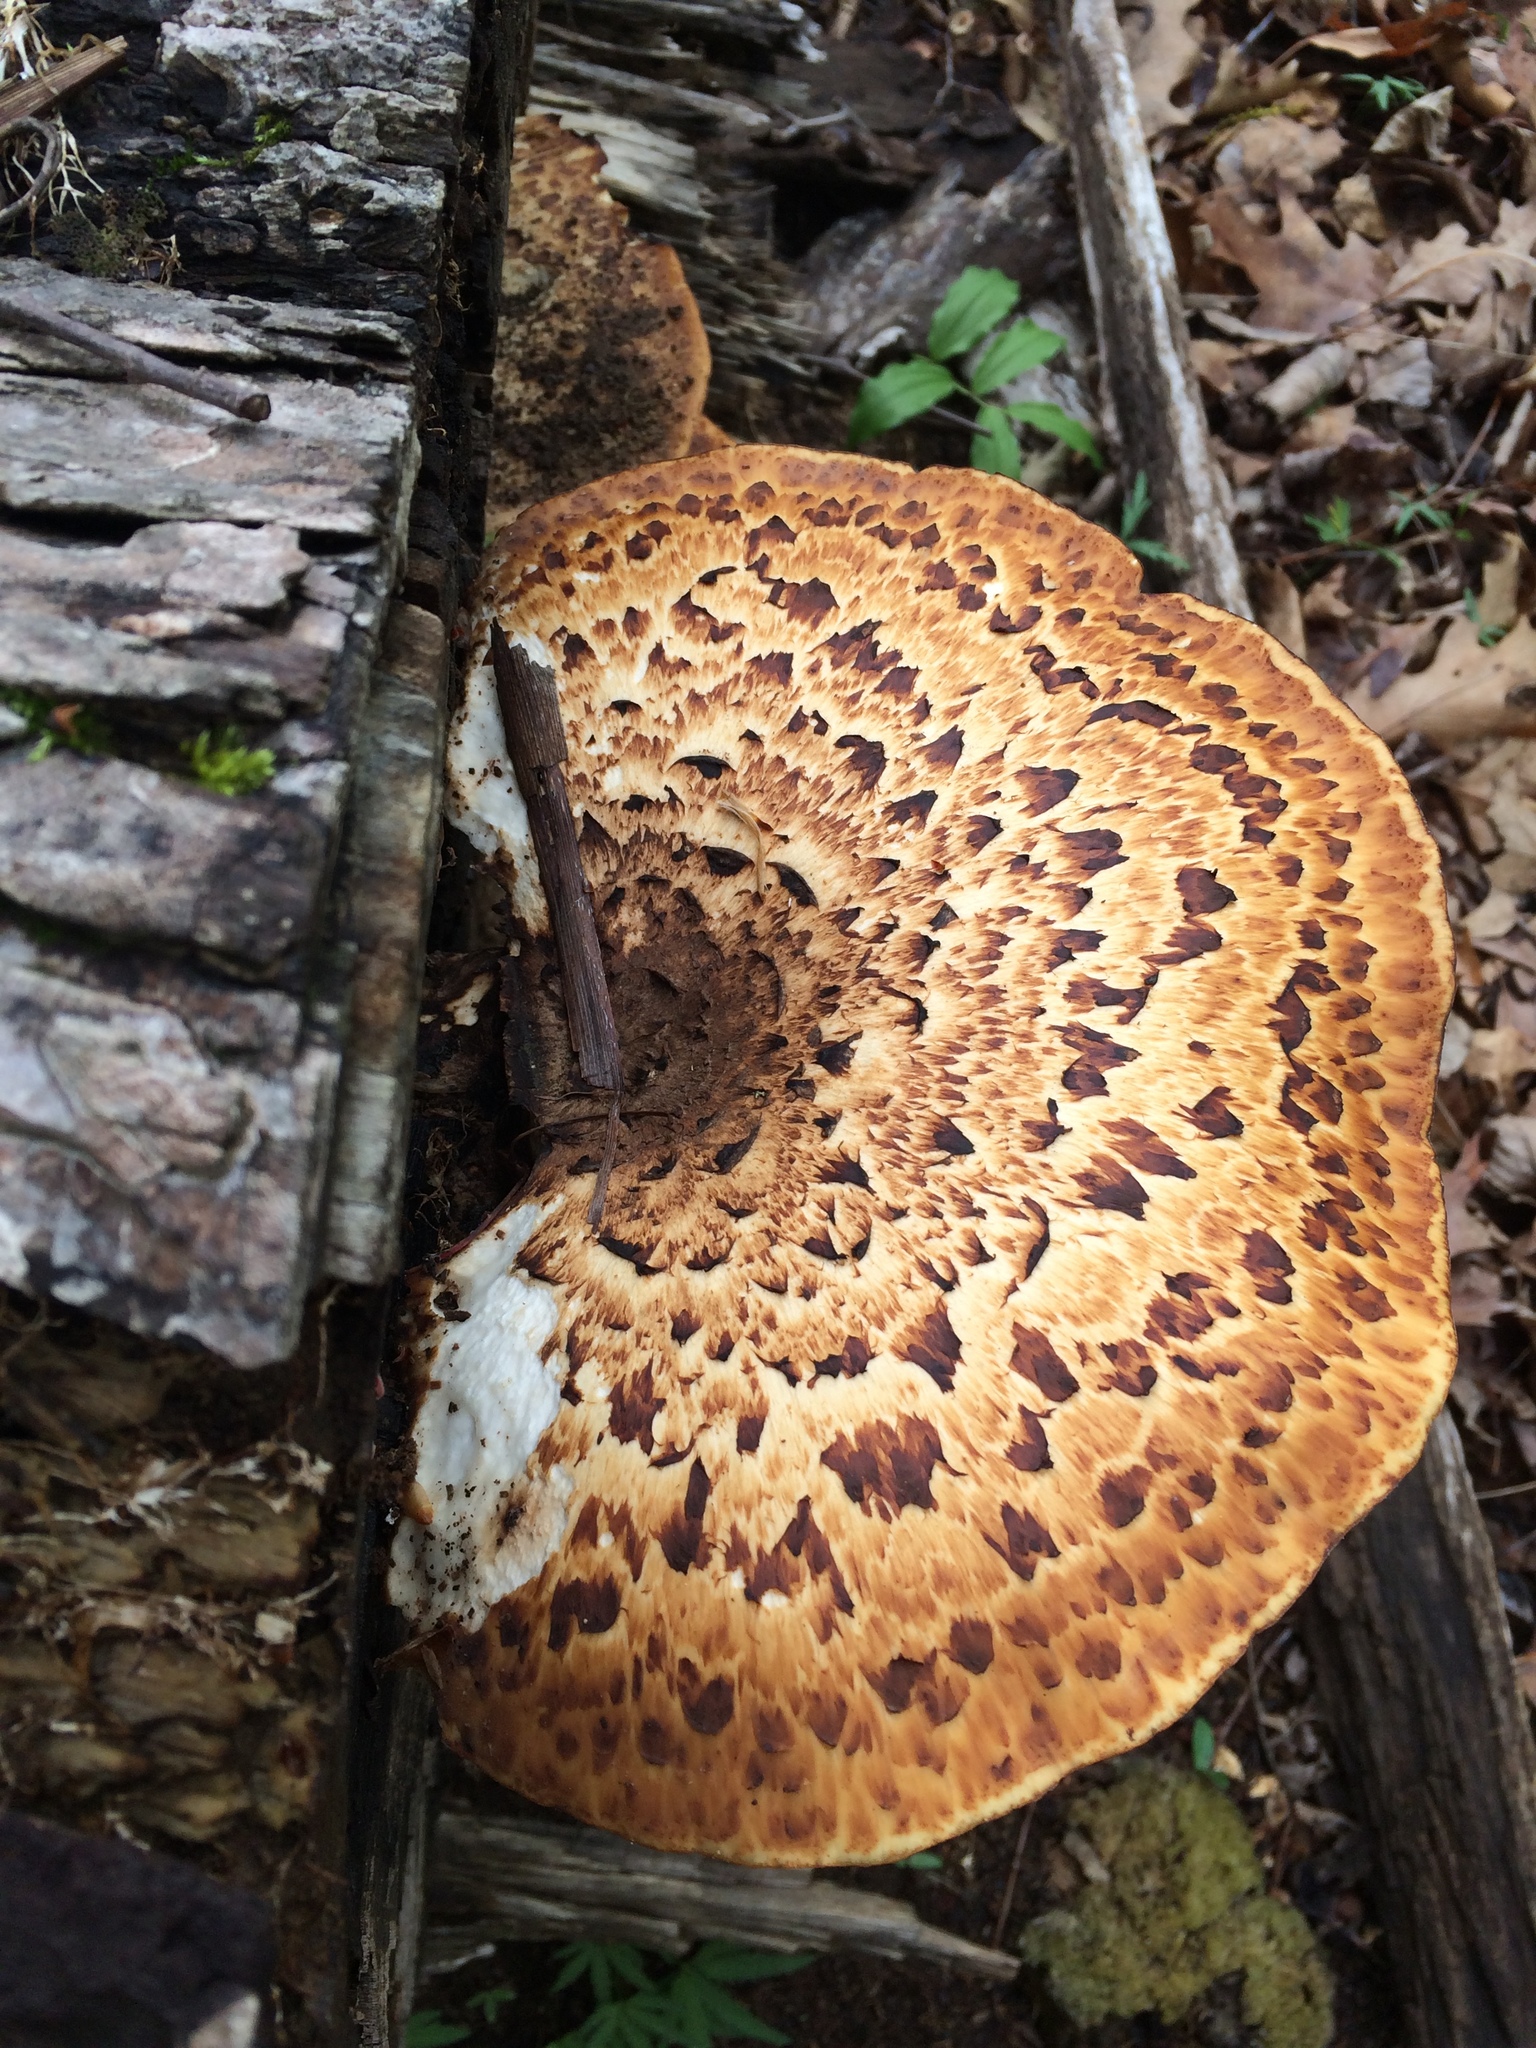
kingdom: Fungi
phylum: Basidiomycota
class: Agaricomycetes
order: Polyporales
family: Polyporaceae
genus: Cerioporus
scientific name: Cerioporus squamosus
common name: Dryad's saddle
